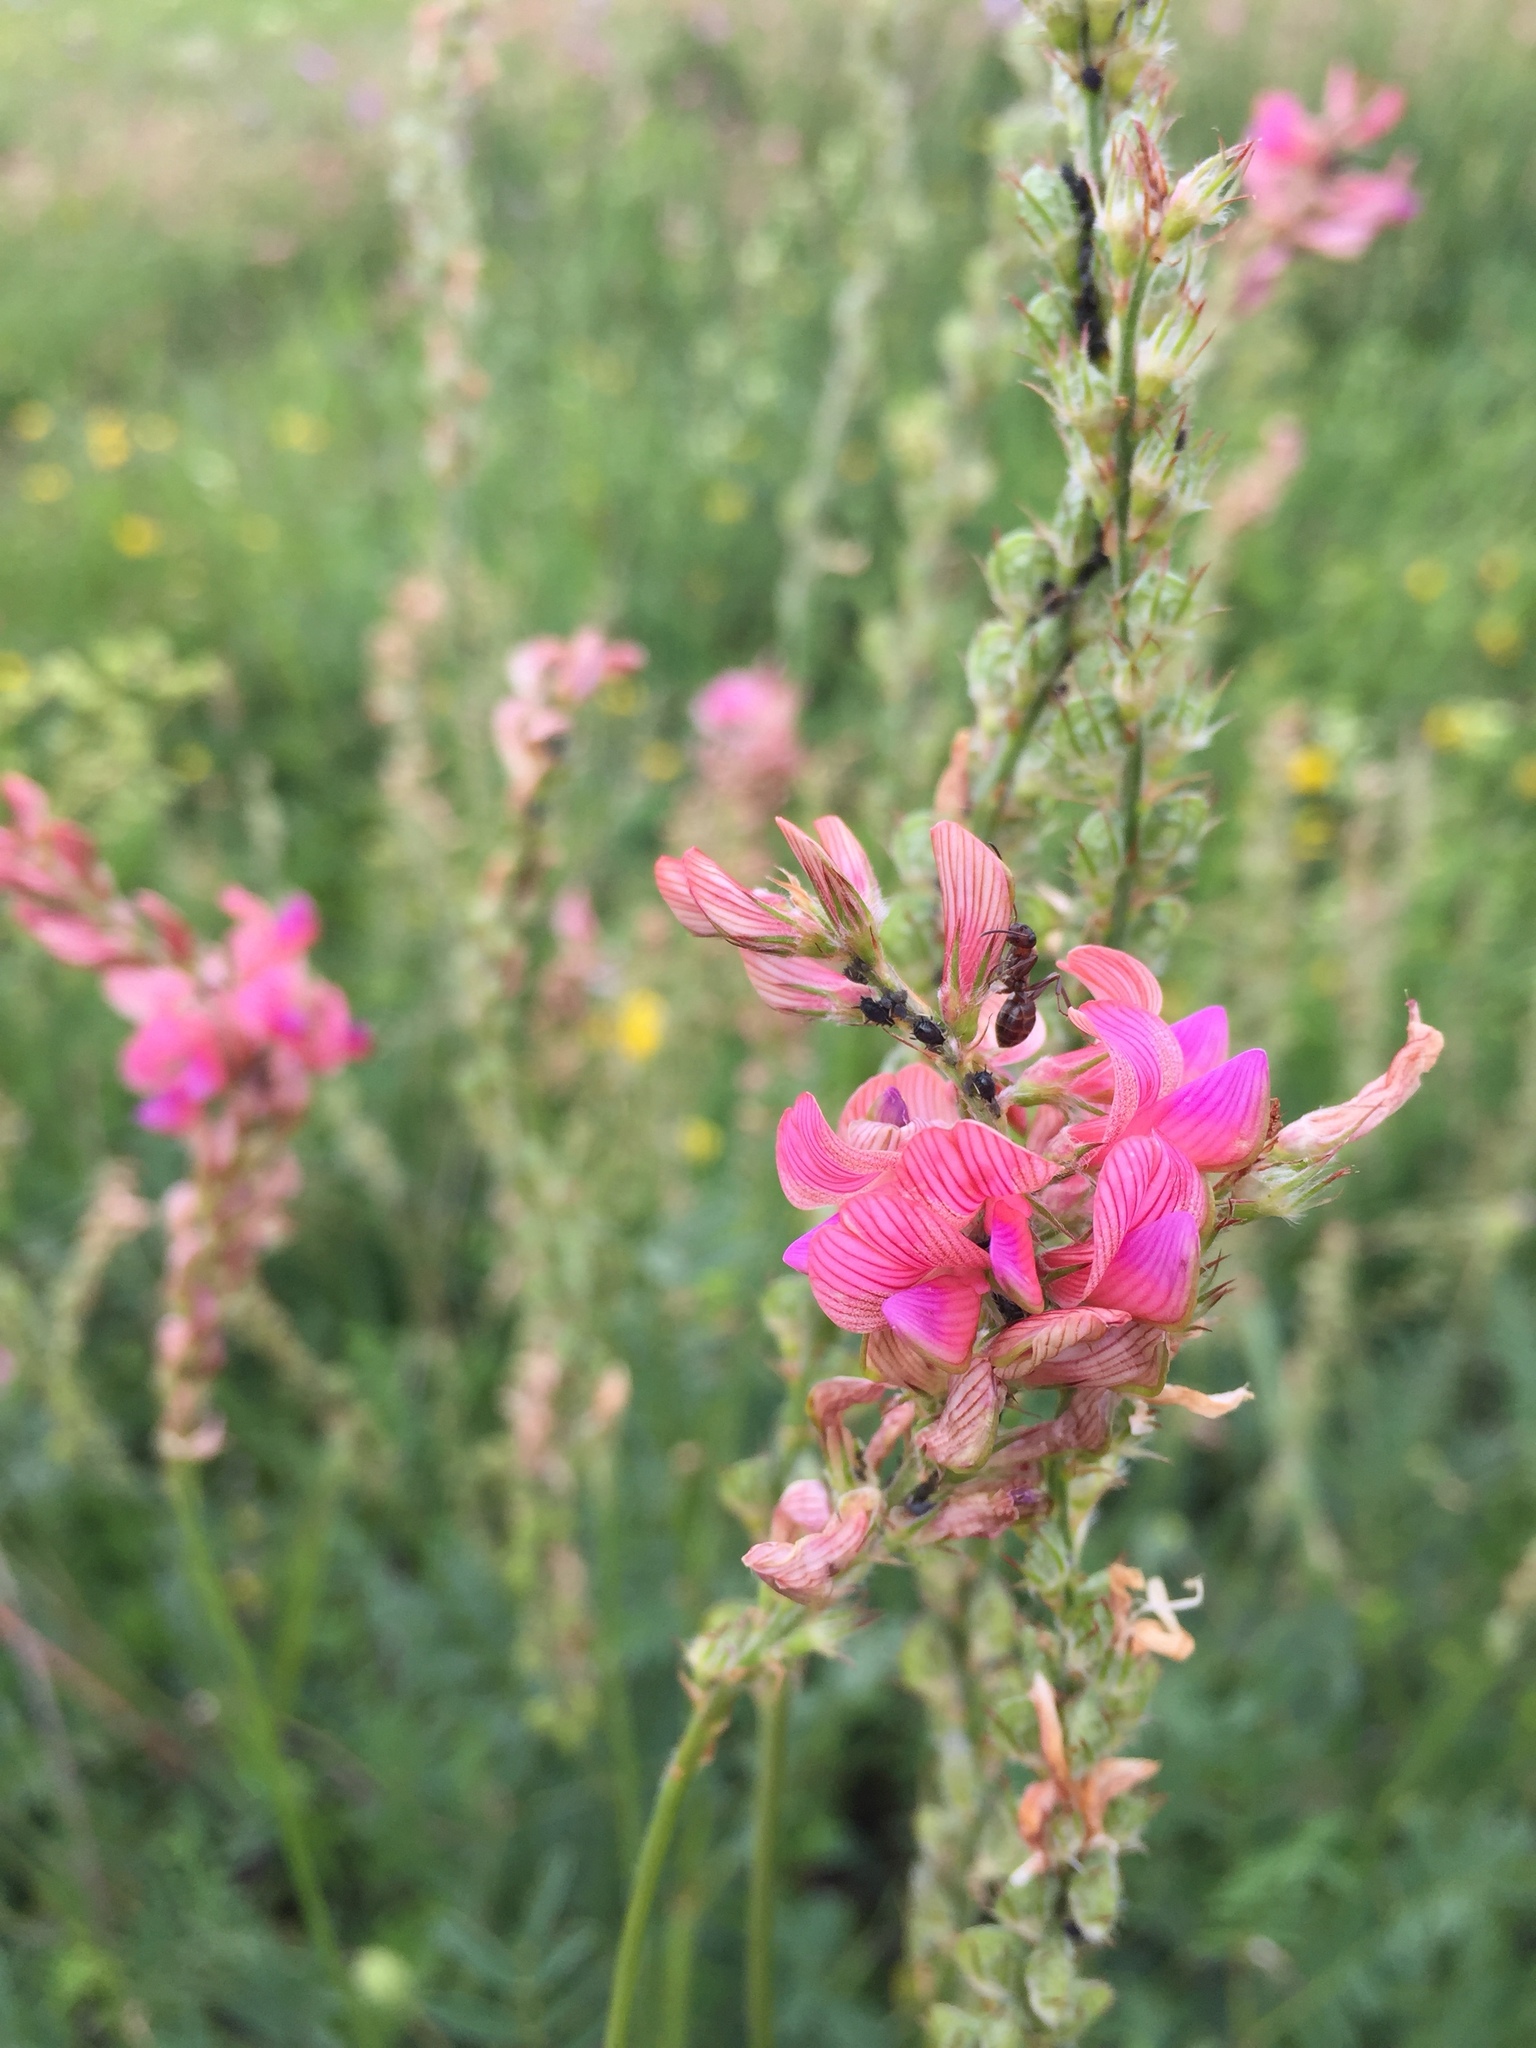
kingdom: Plantae
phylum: Tracheophyta
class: Magnoliopsida
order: Fabales
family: Fabaceae
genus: Onobrychis
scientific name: Onobrychis viciifolia
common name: Sainfoin
